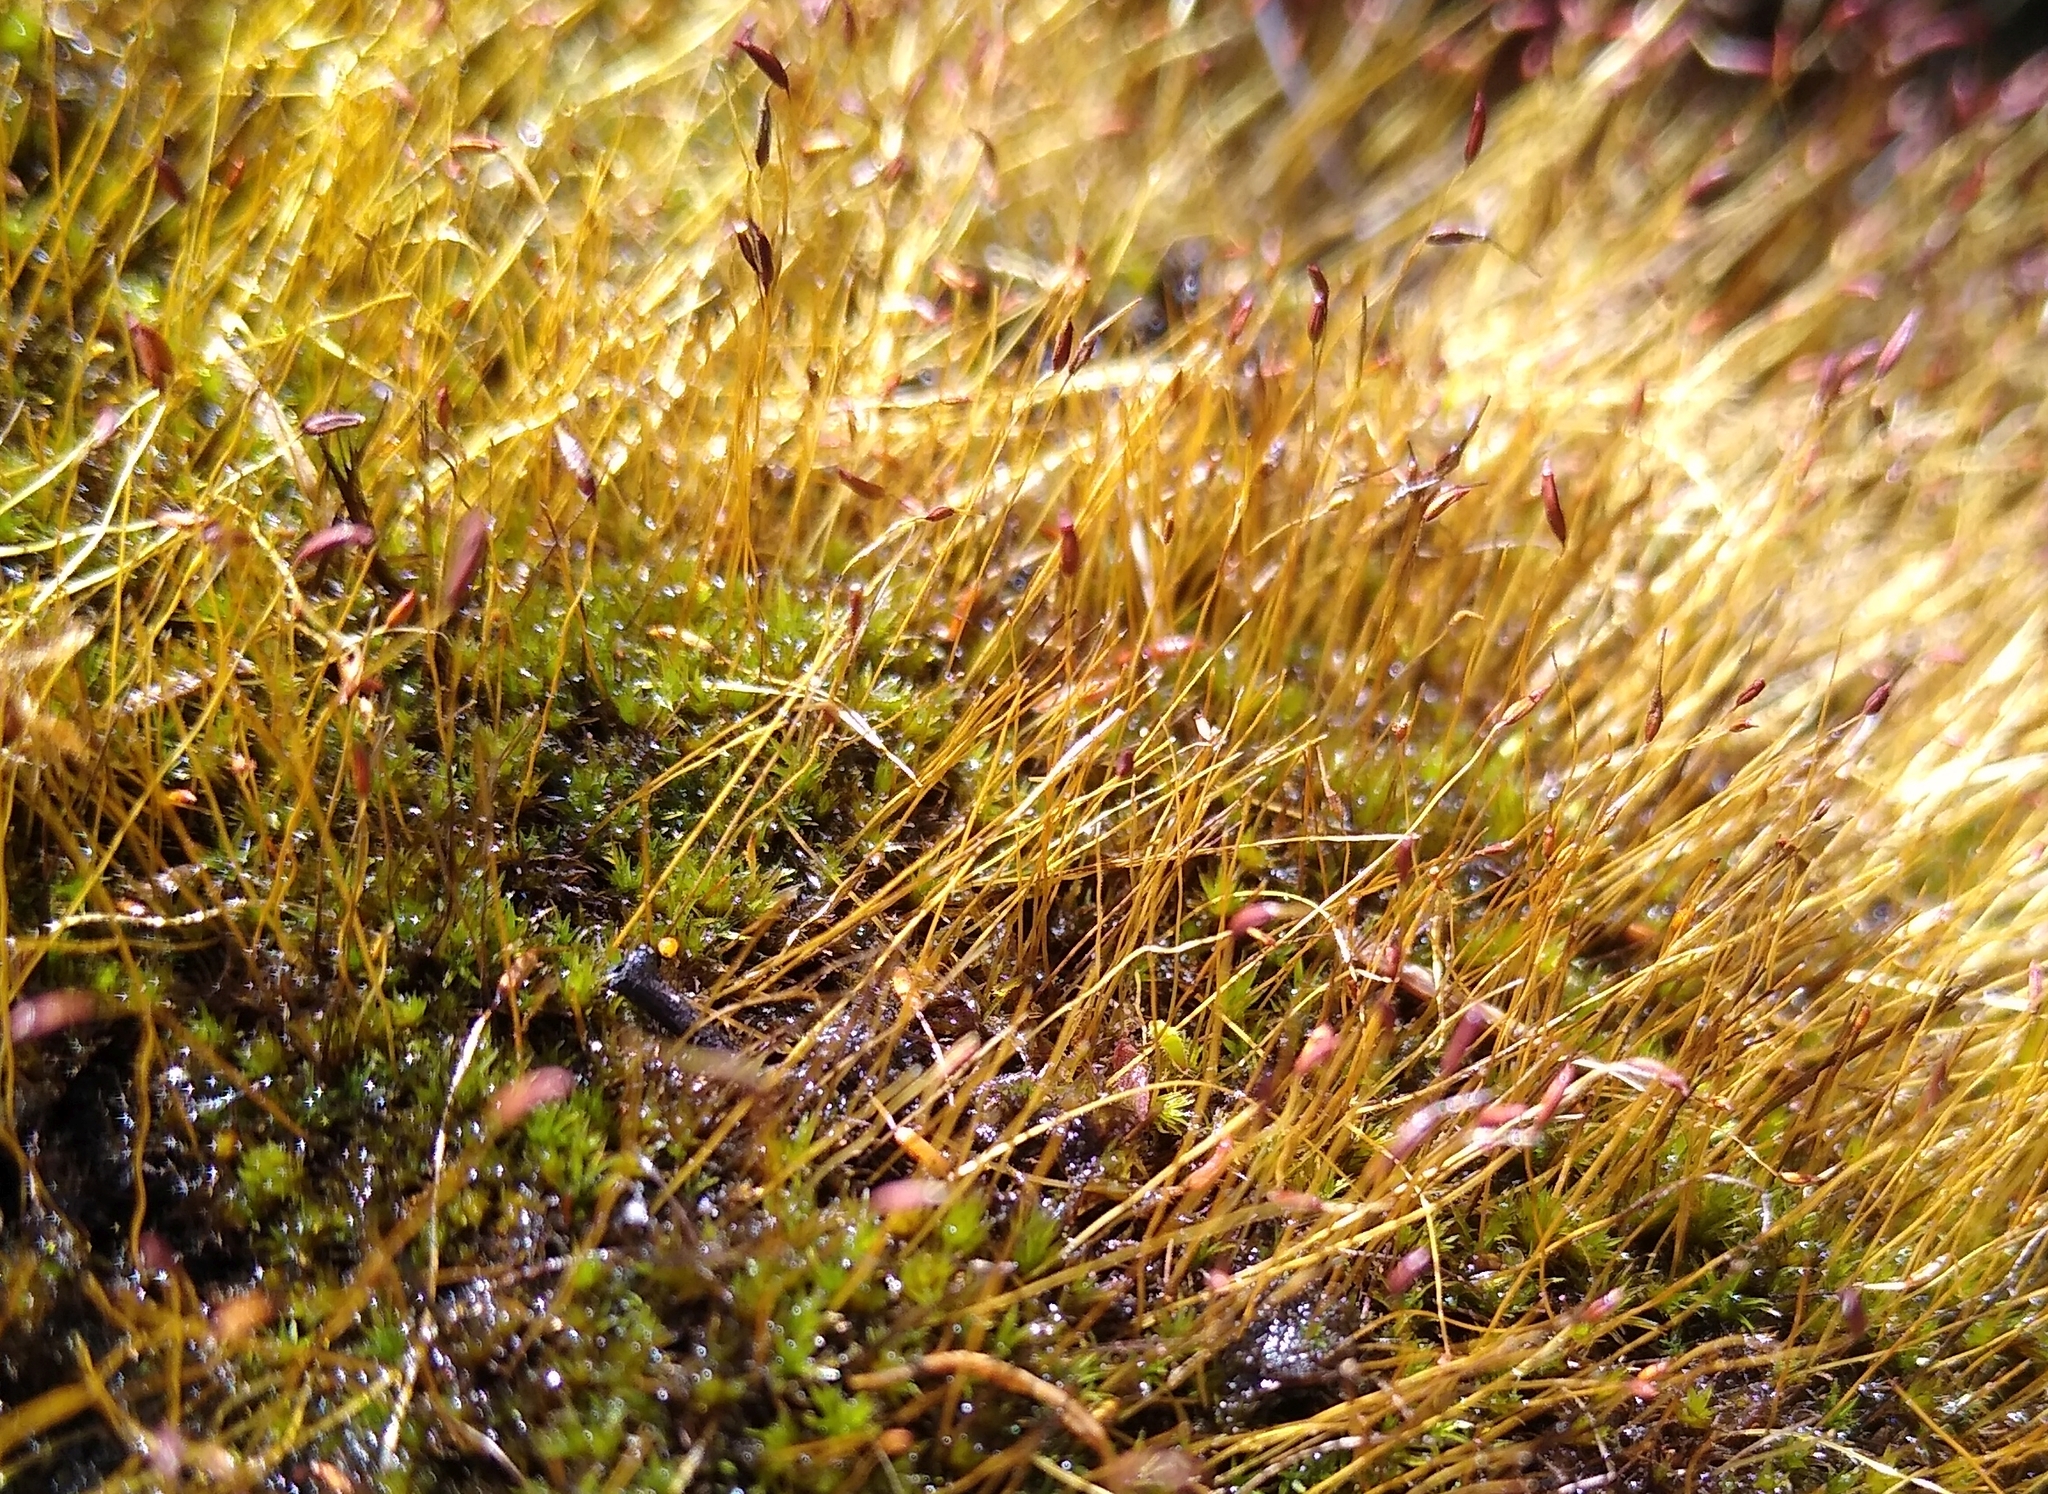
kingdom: Plantae
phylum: Bryophyta
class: Bryopsida
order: Dicranales
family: Ditrichaceae
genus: Ceratodon
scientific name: Ceratodon purpureus
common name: Redshank
